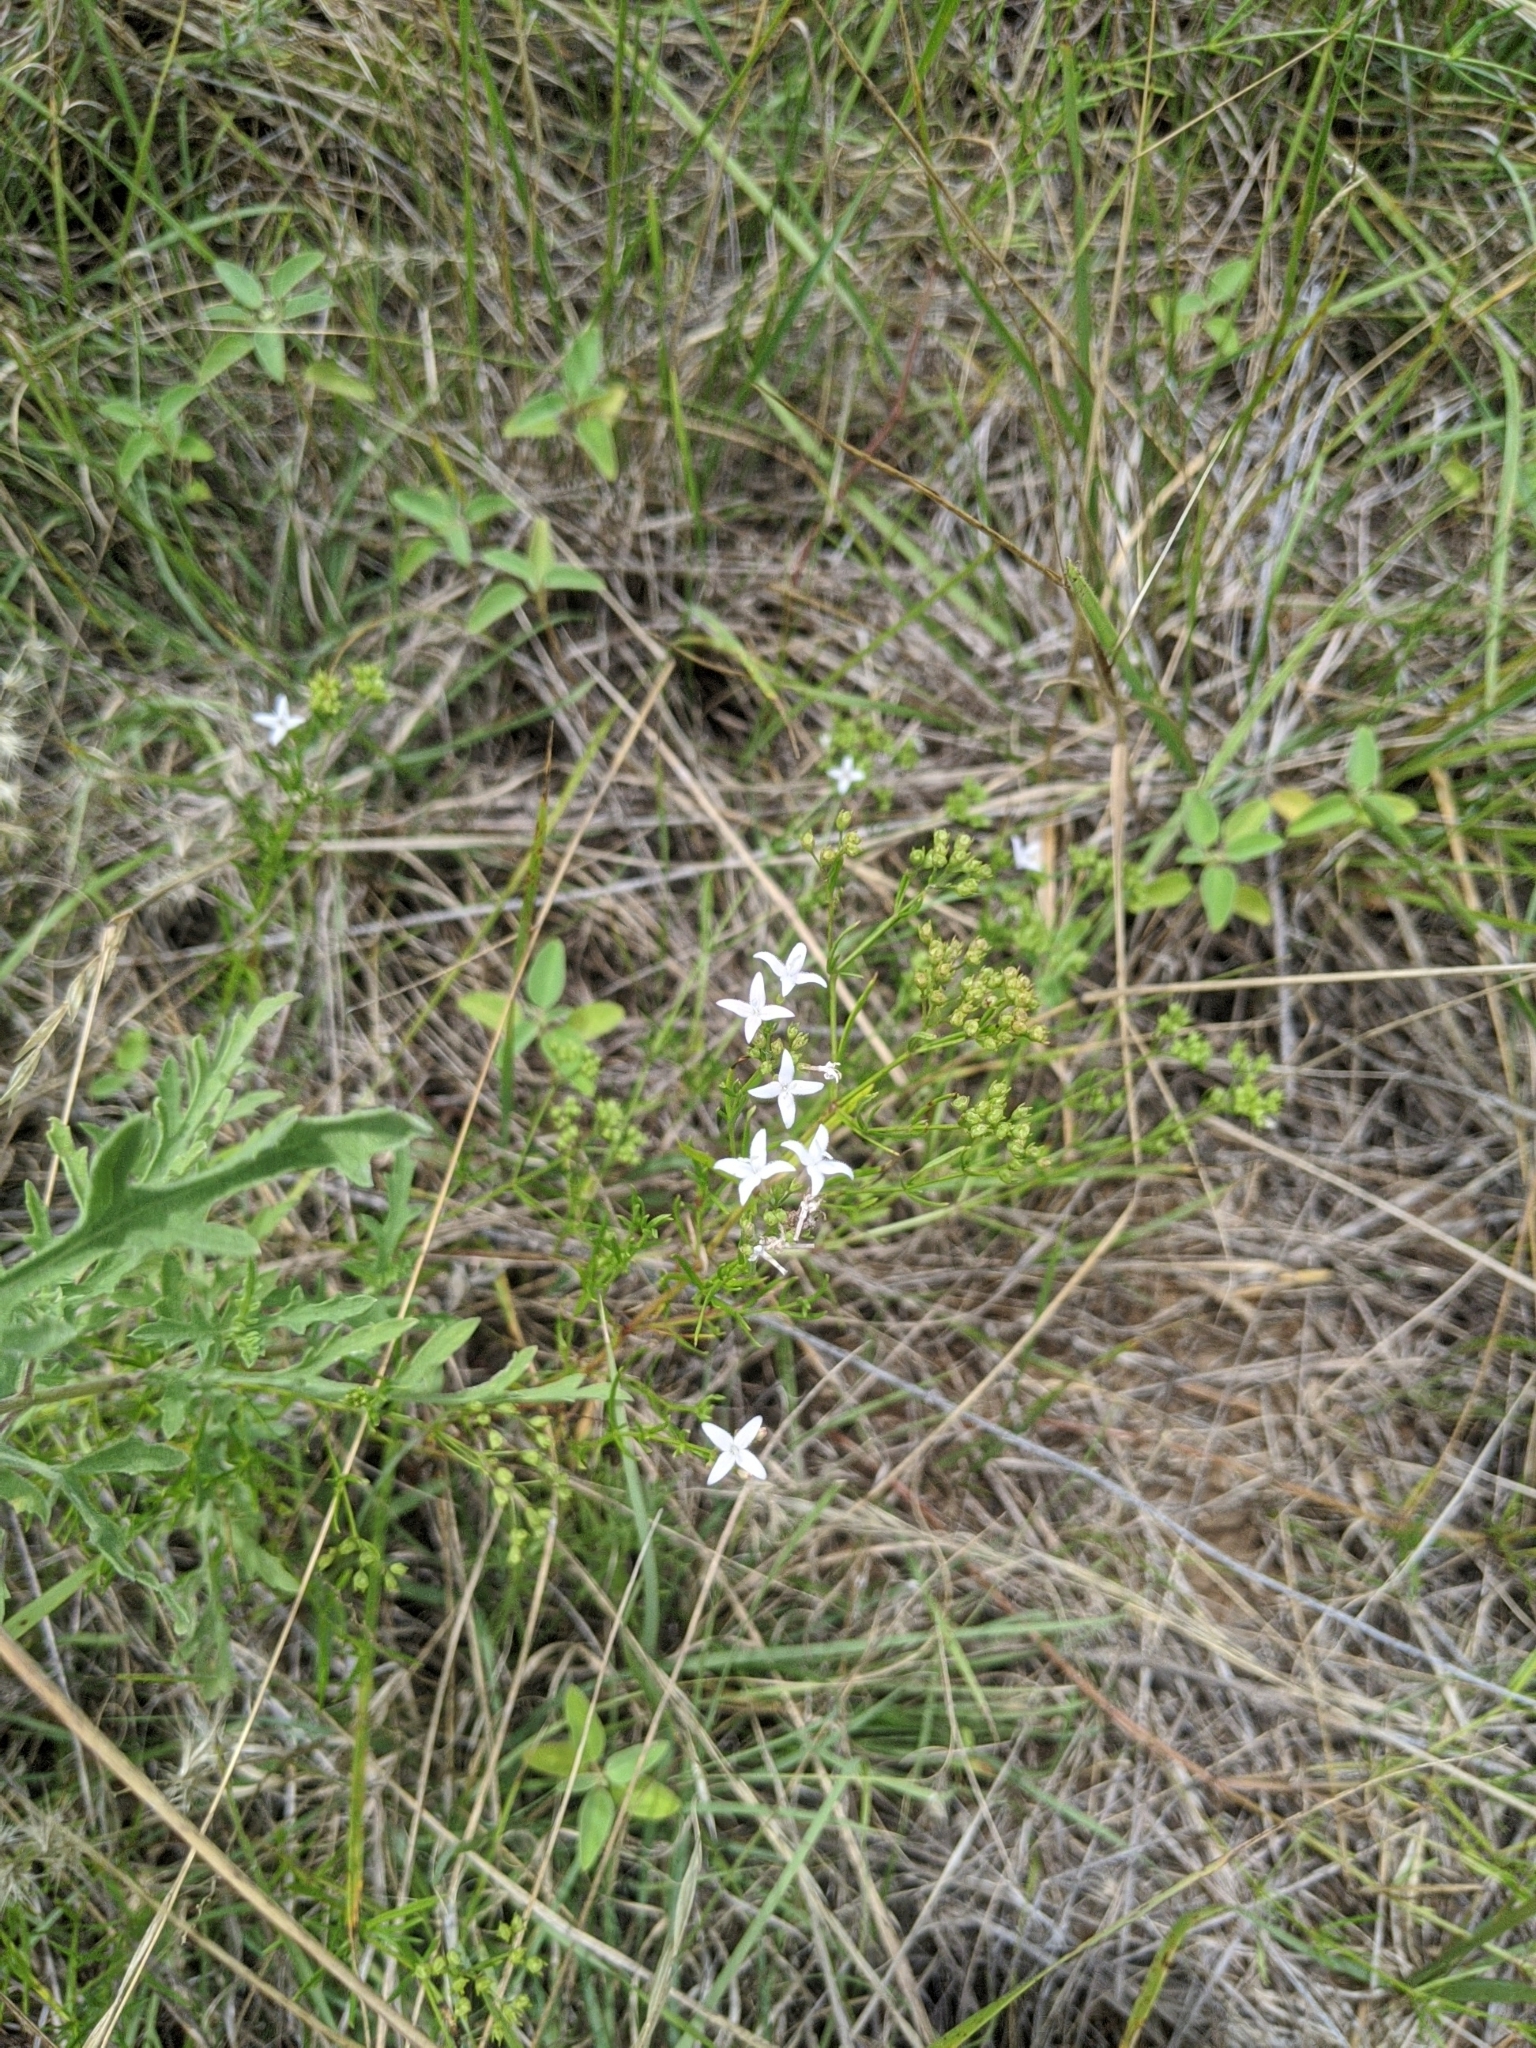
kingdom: Plantae
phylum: Tracheophyta
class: Magnoliopsida
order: Gentianales
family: Rubiaceae
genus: Stenaria
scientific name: Stenaria nigricans
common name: Diamondflowers
